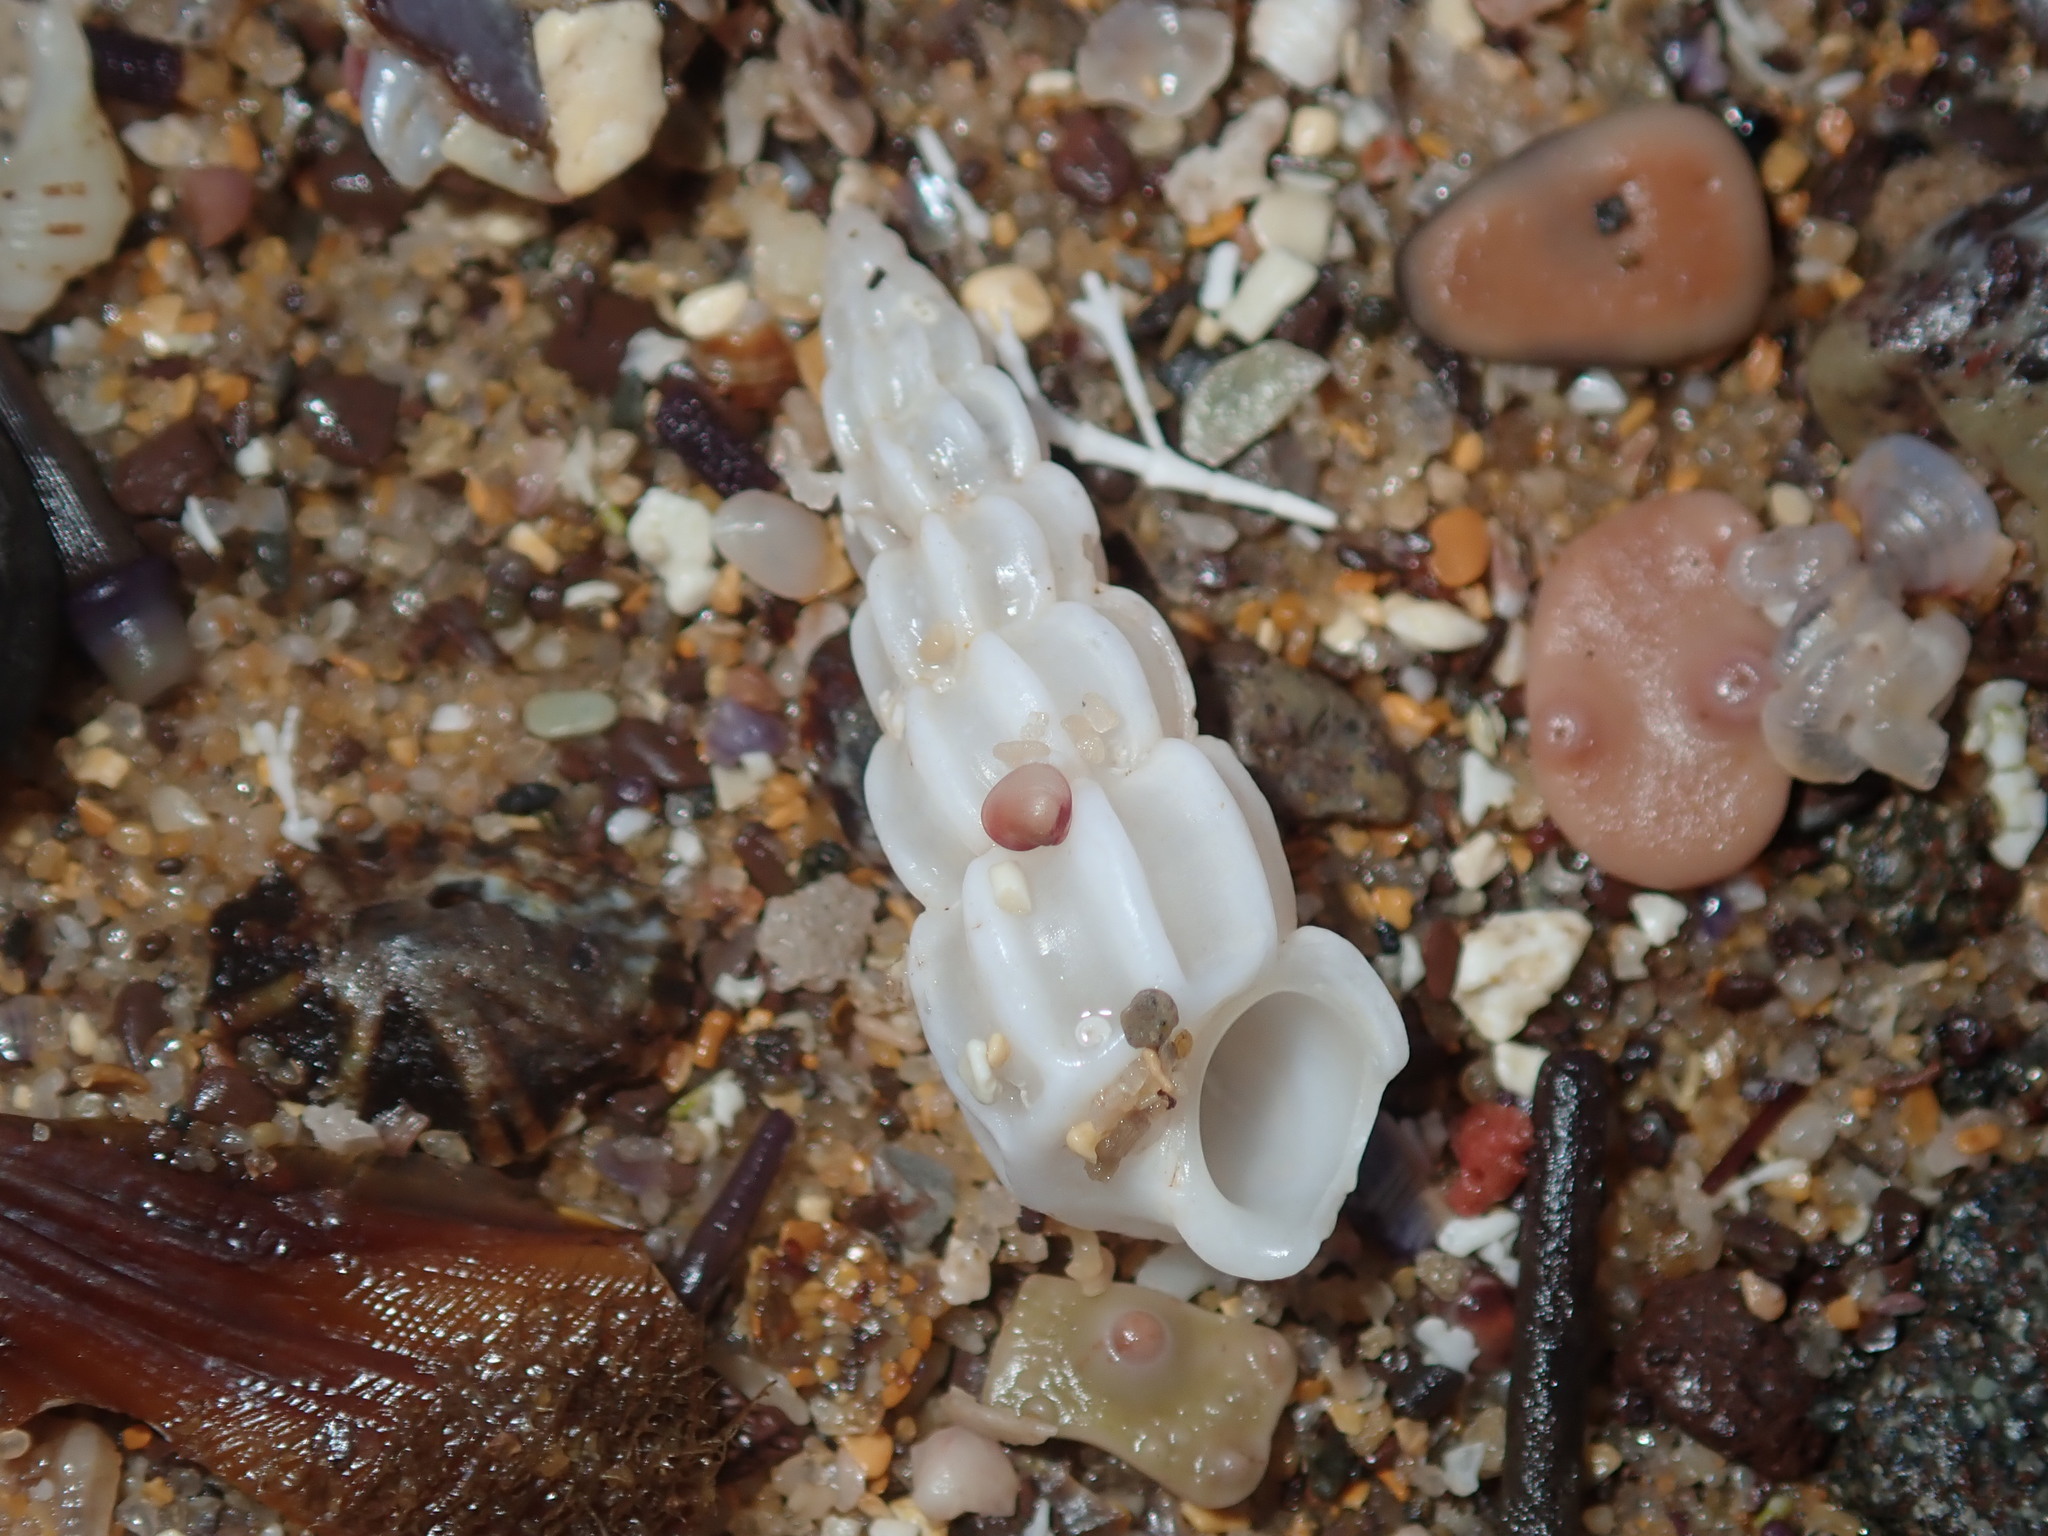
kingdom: Animalia
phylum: Mollusca
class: Gastropoda
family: Epitoniidae
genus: Opalia
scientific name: Opalia australis
